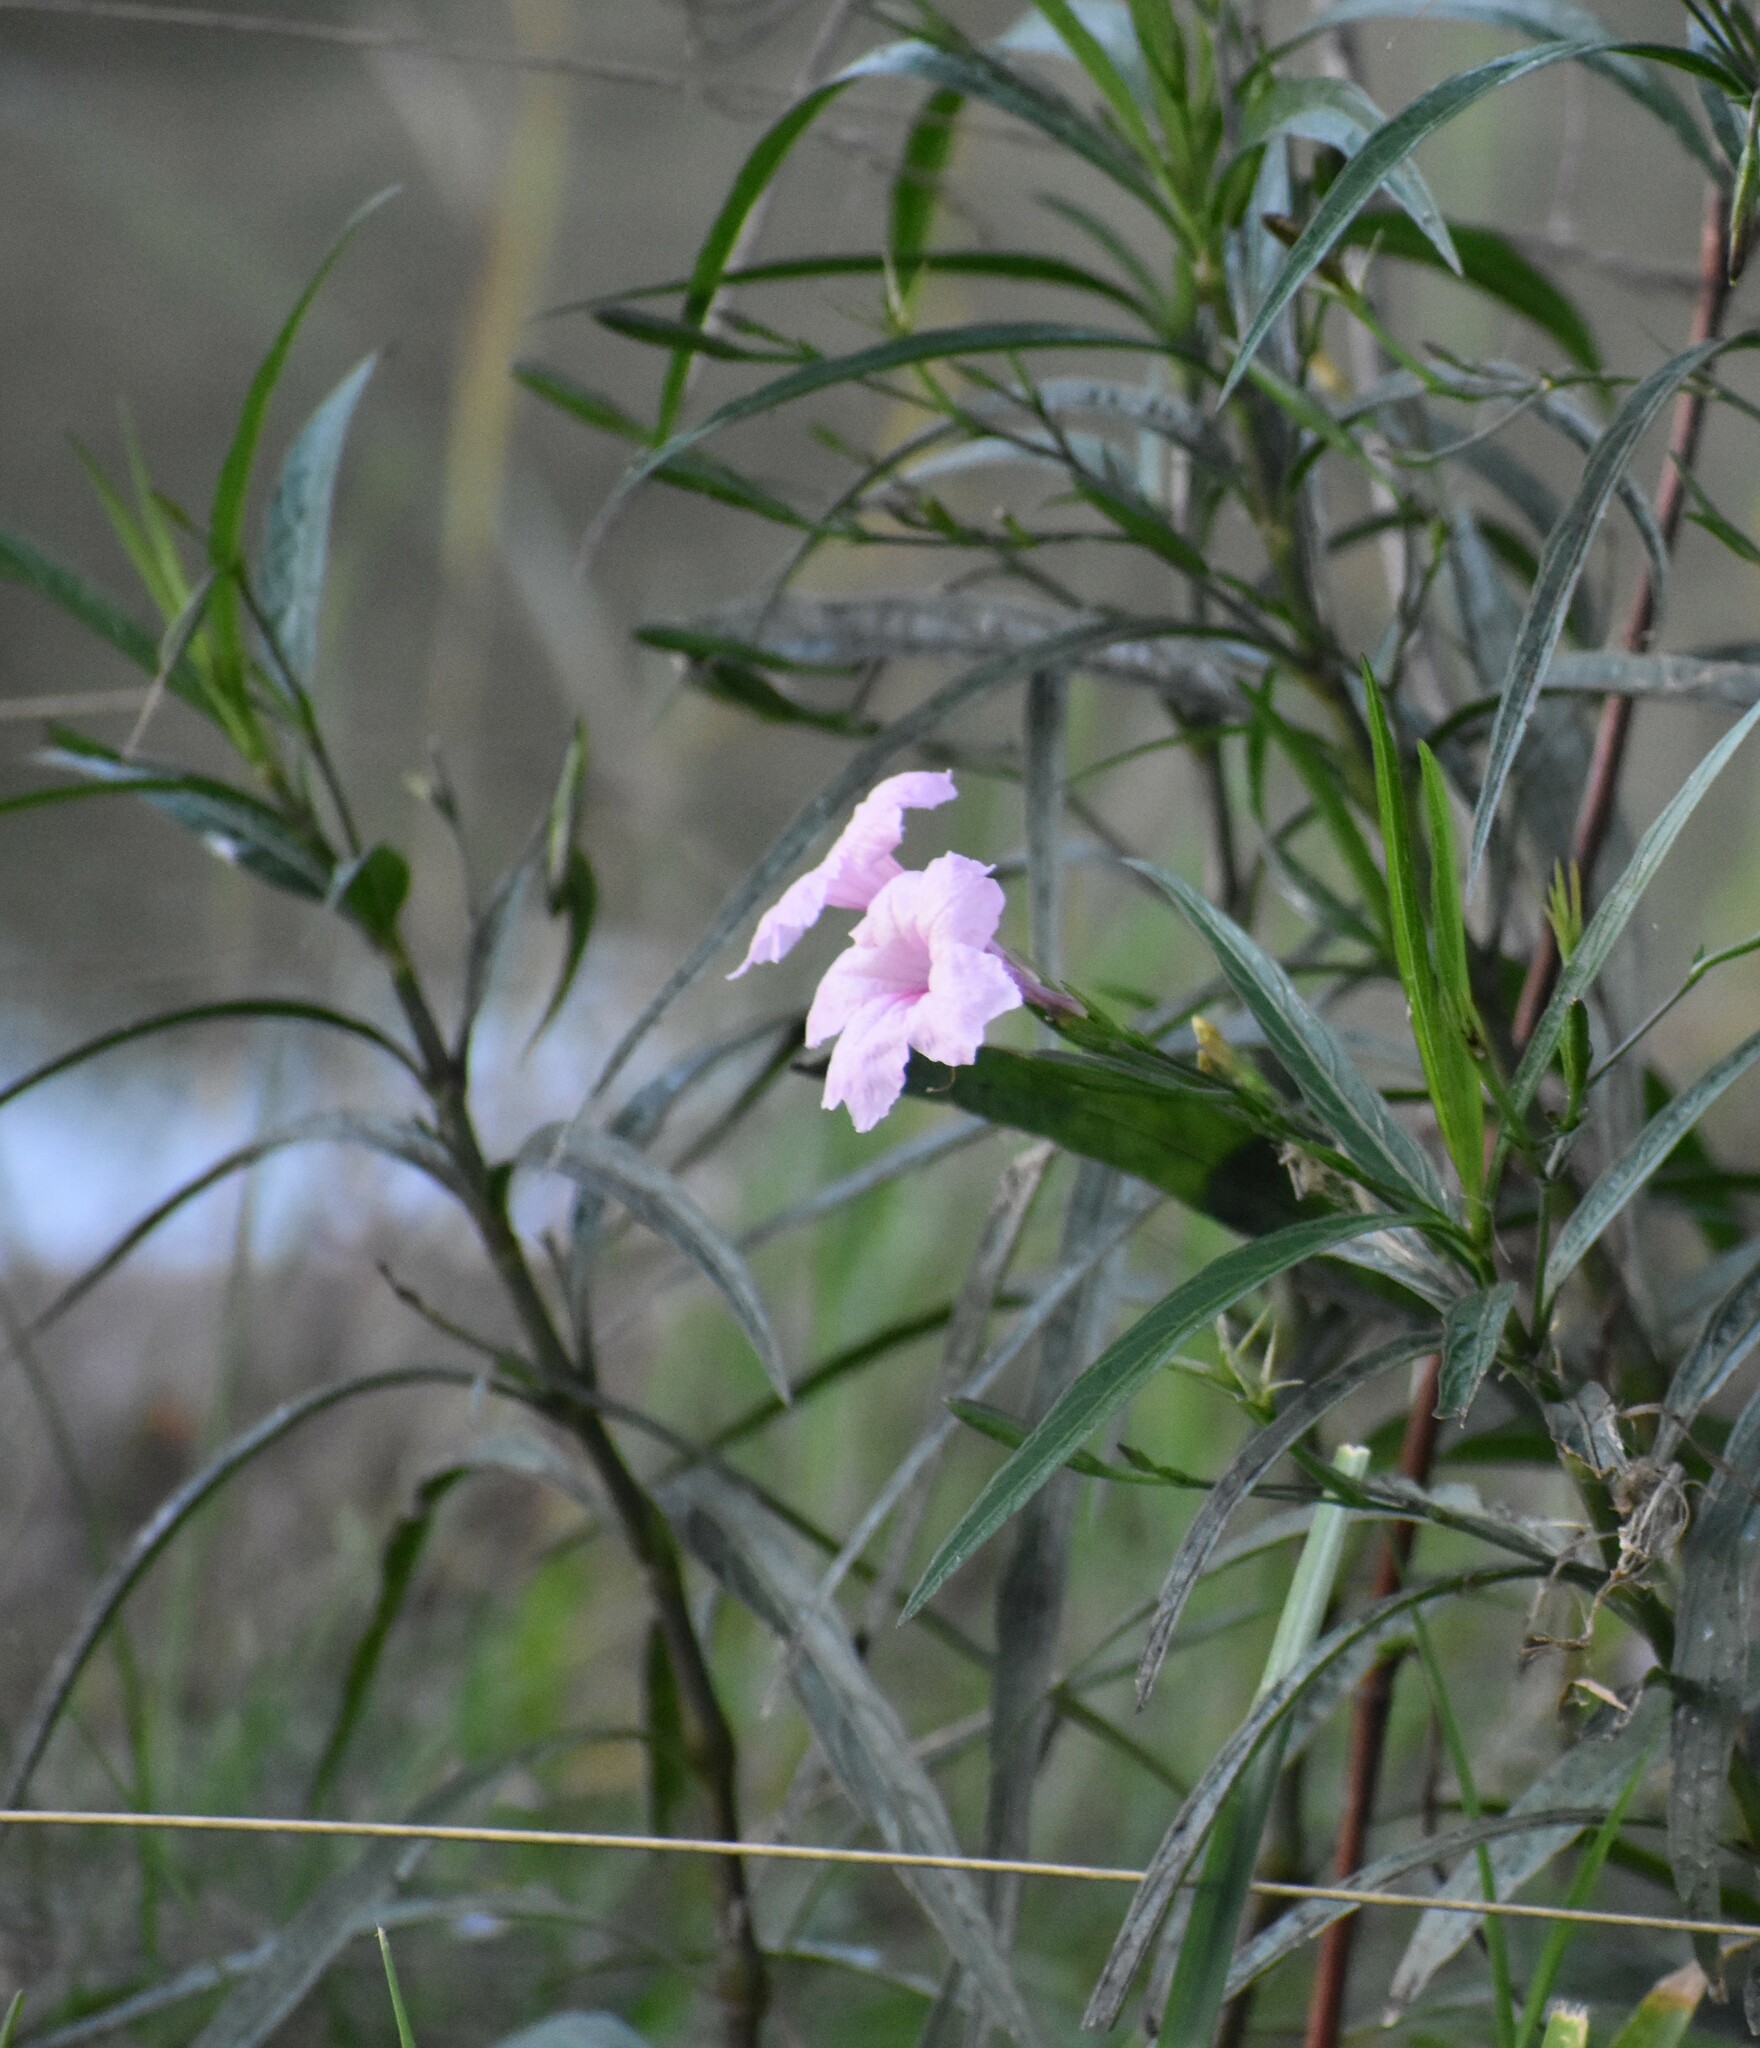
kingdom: Plantae
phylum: Tracheophyta
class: Magnoliopsida
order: Lamiales
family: Acanthaceae
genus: Ruellia
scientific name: Ruellia simplex
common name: Softseed wild petunia
